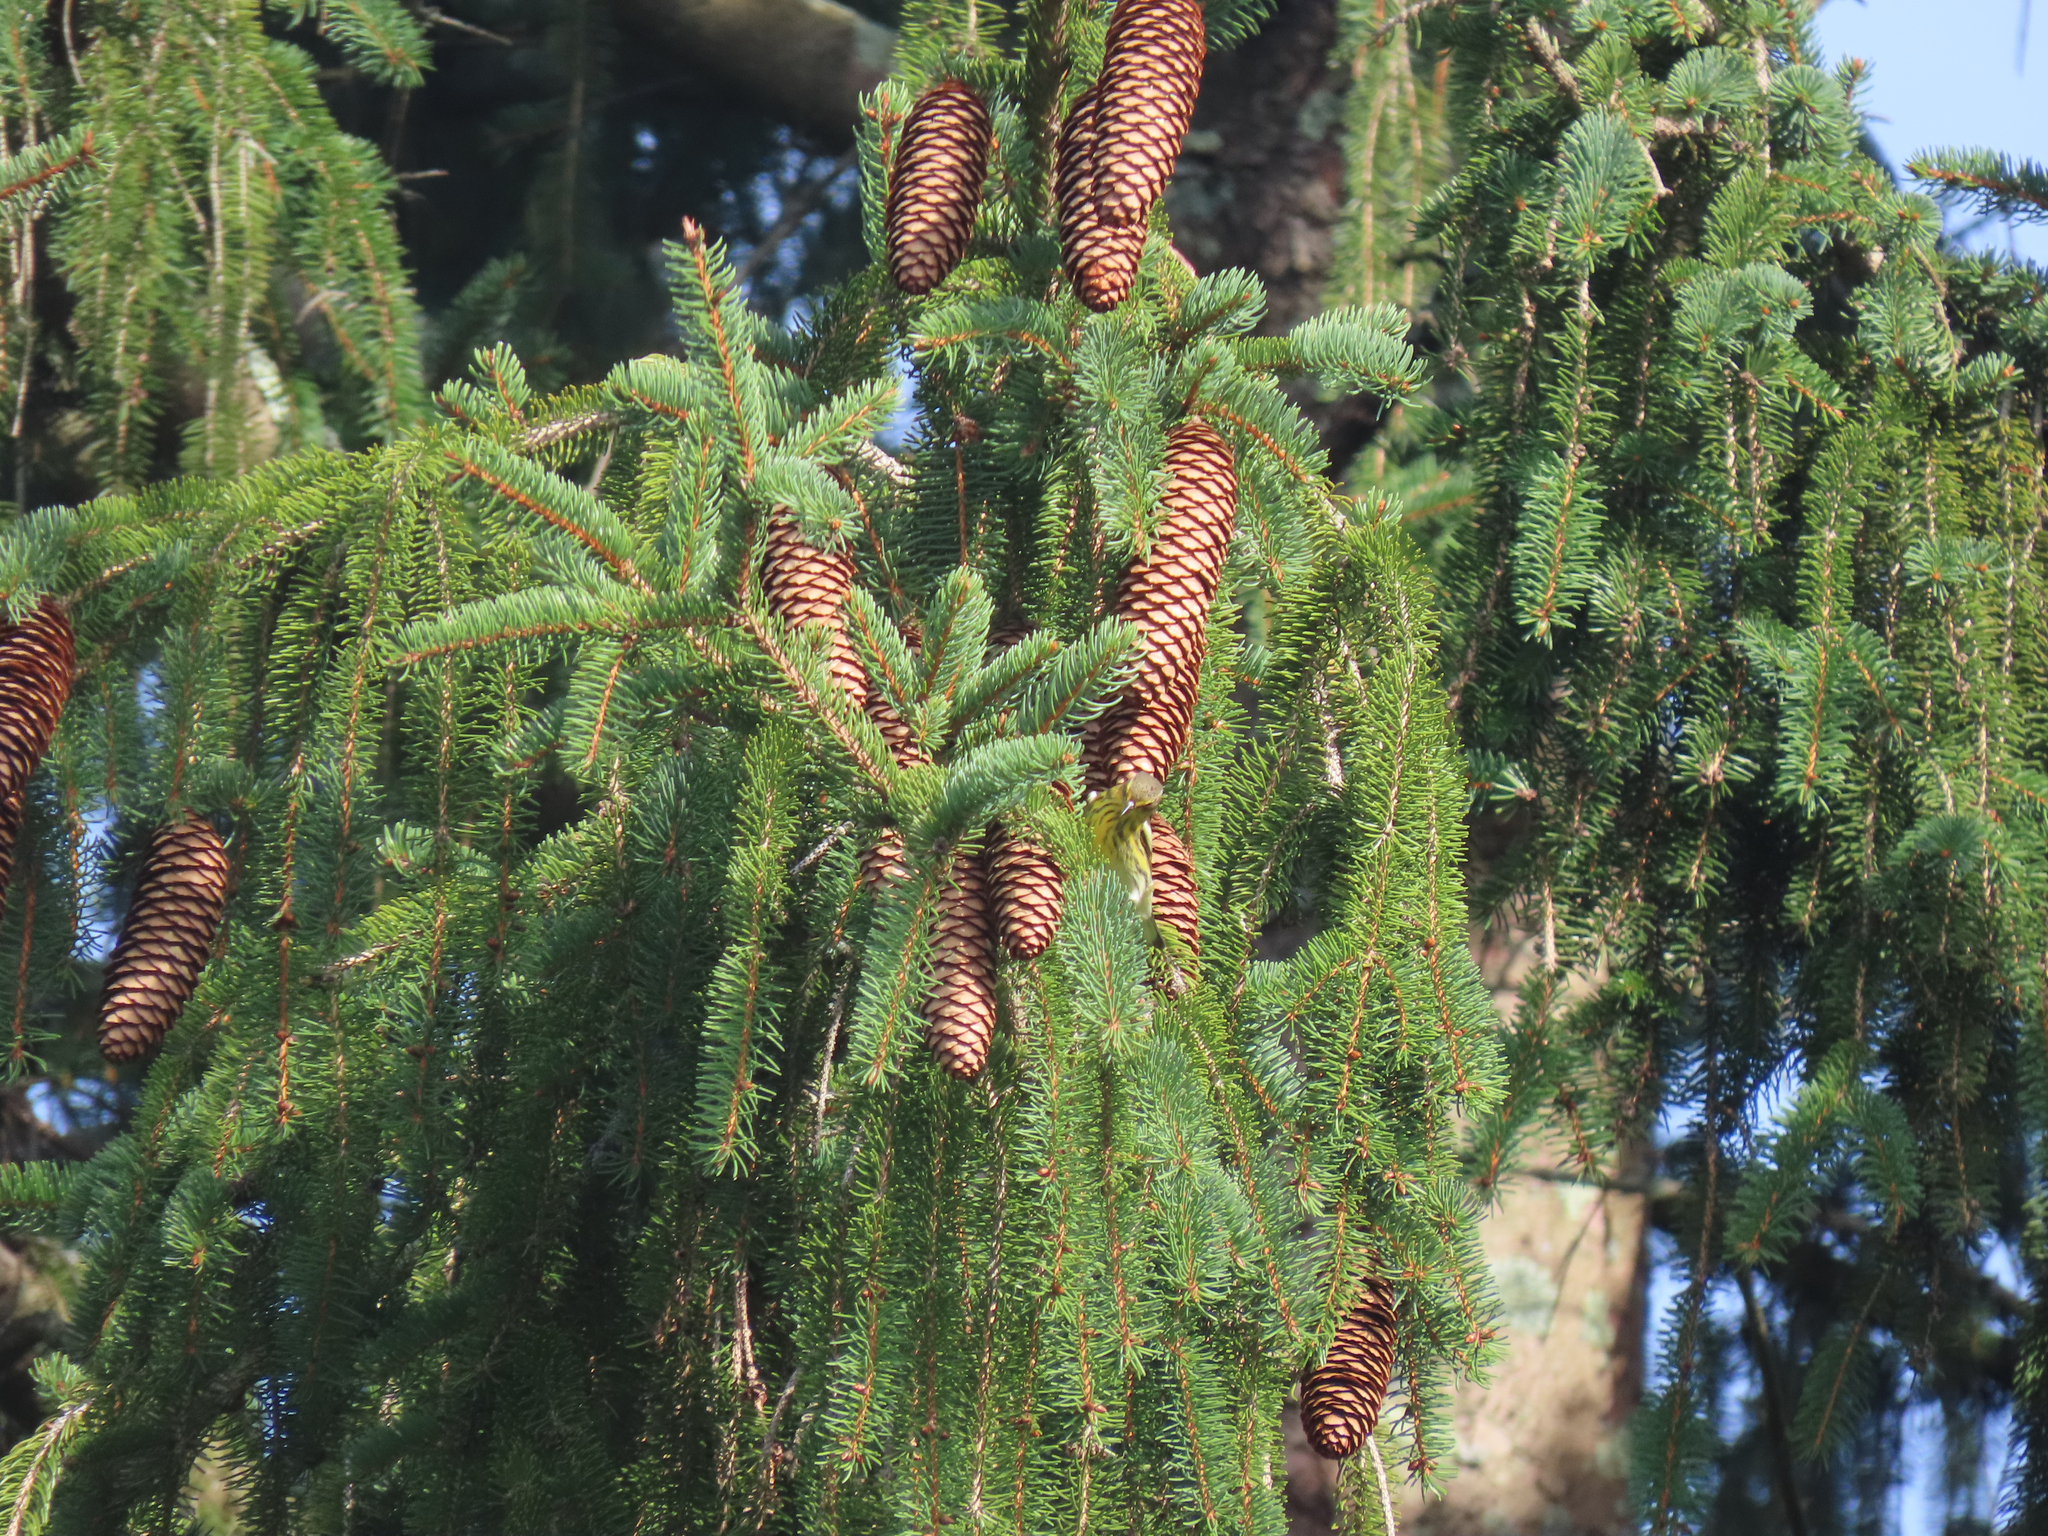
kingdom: Animalia
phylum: Chordata
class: Aves
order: Passeriformes
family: Parulidae
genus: Setophaga
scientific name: Setophaga tigrina
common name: Cape may warbler
